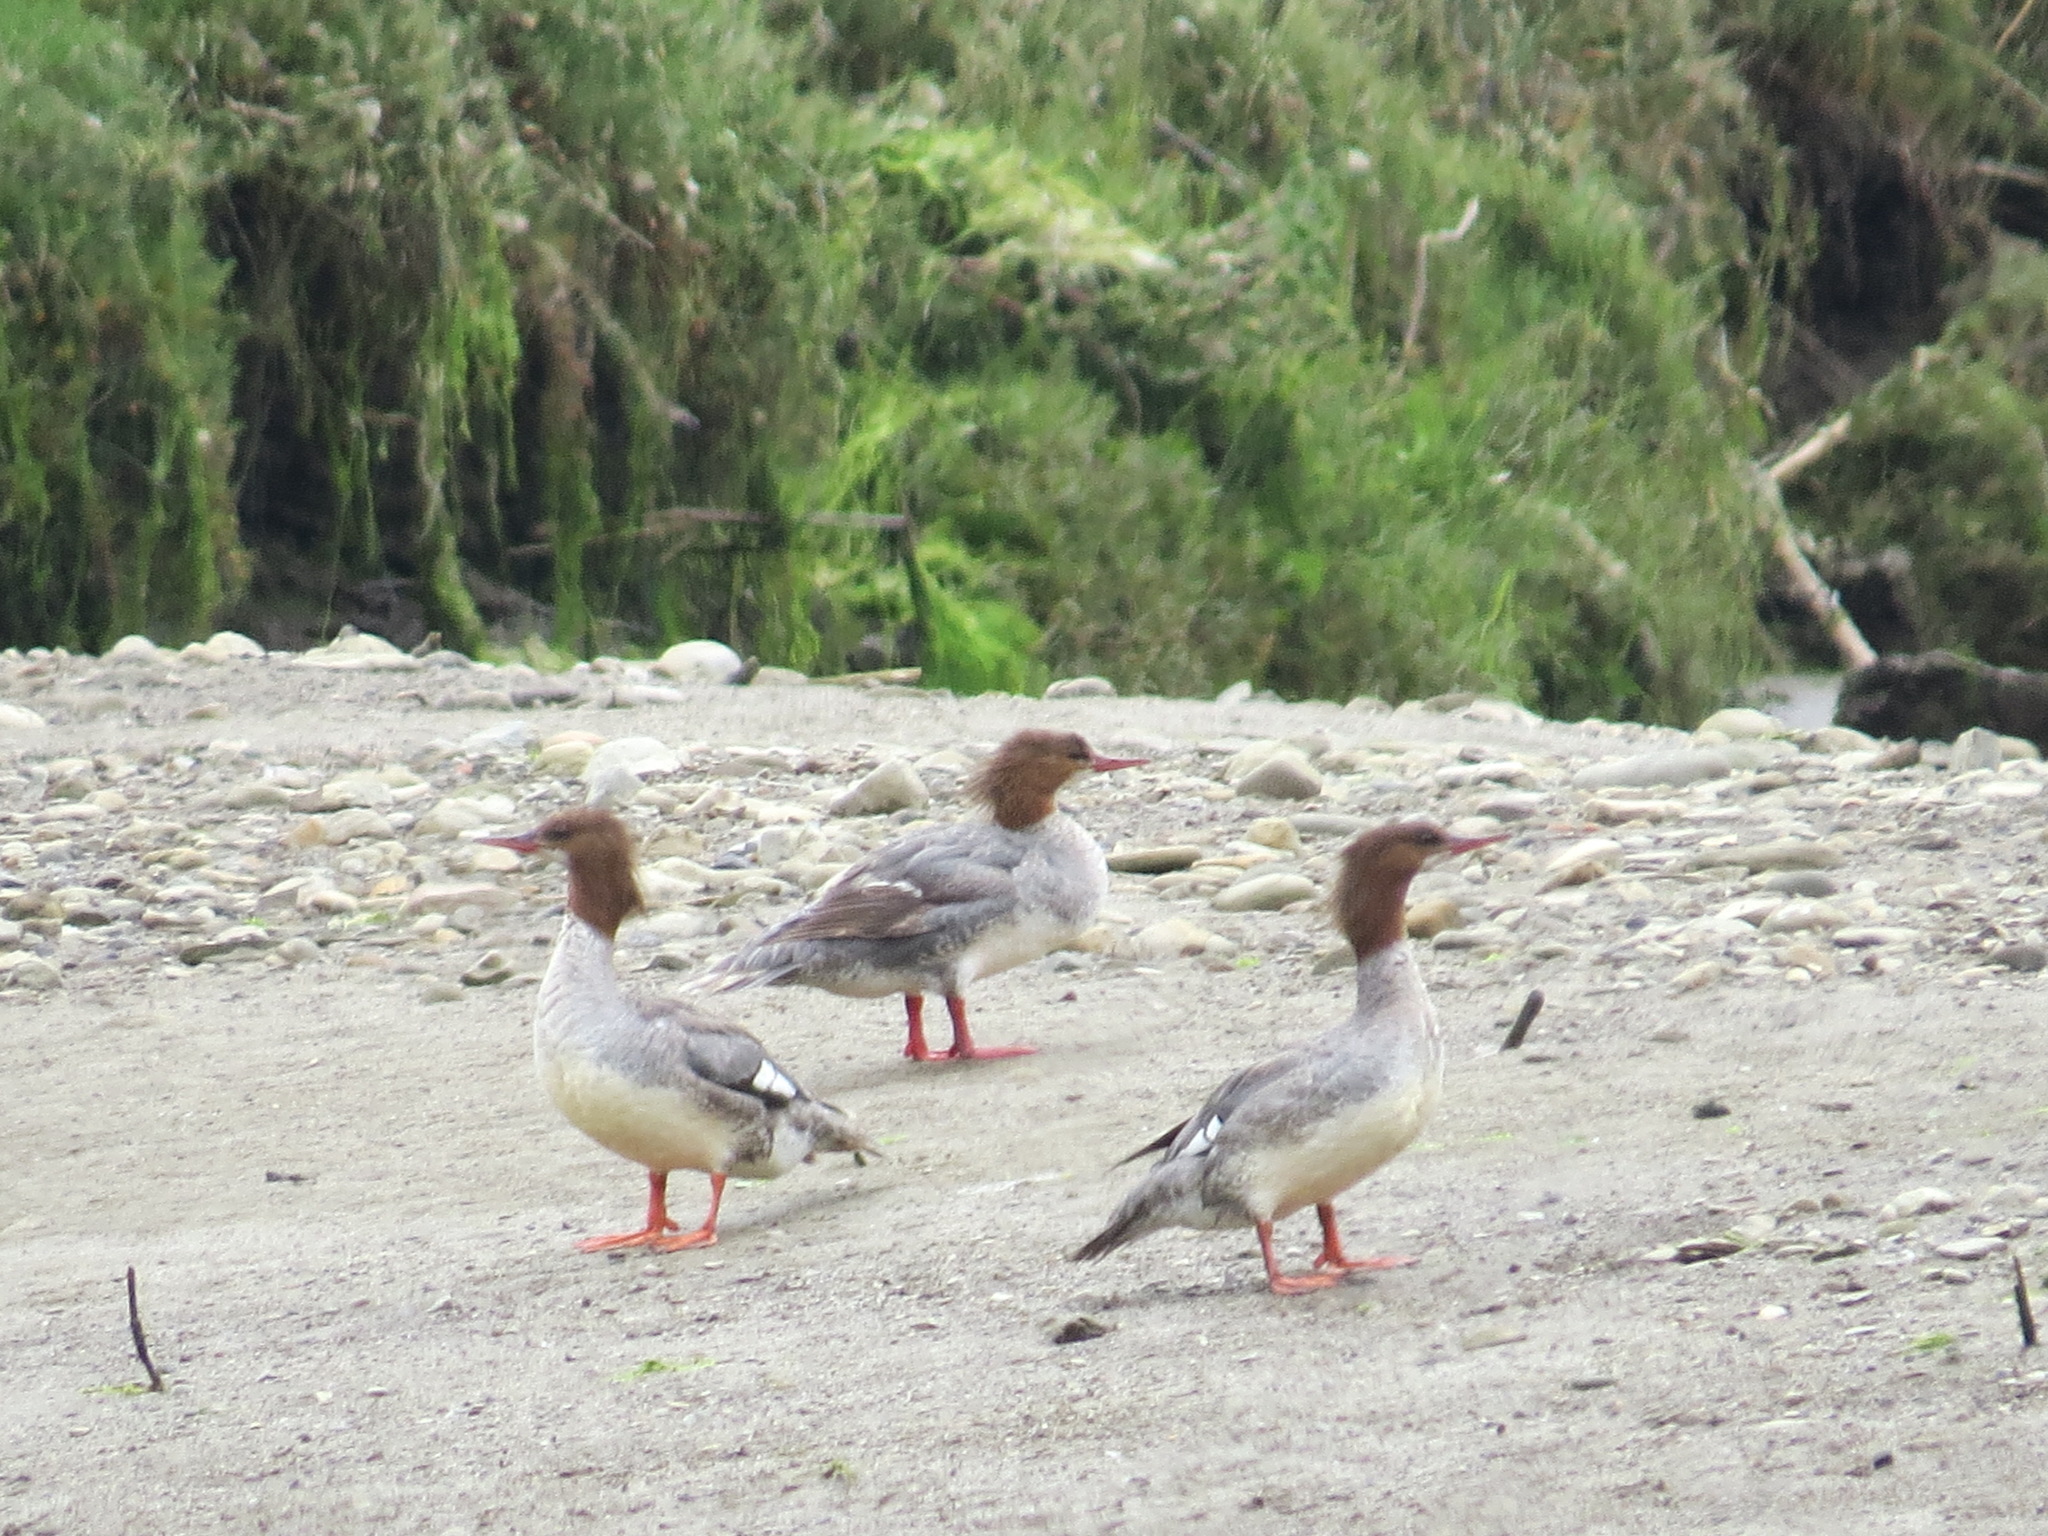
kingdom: Animalia
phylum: Chordata
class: Aves
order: Anseriformes
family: Anatidae
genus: Mergus
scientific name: Mergus merganser
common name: Common merganser
